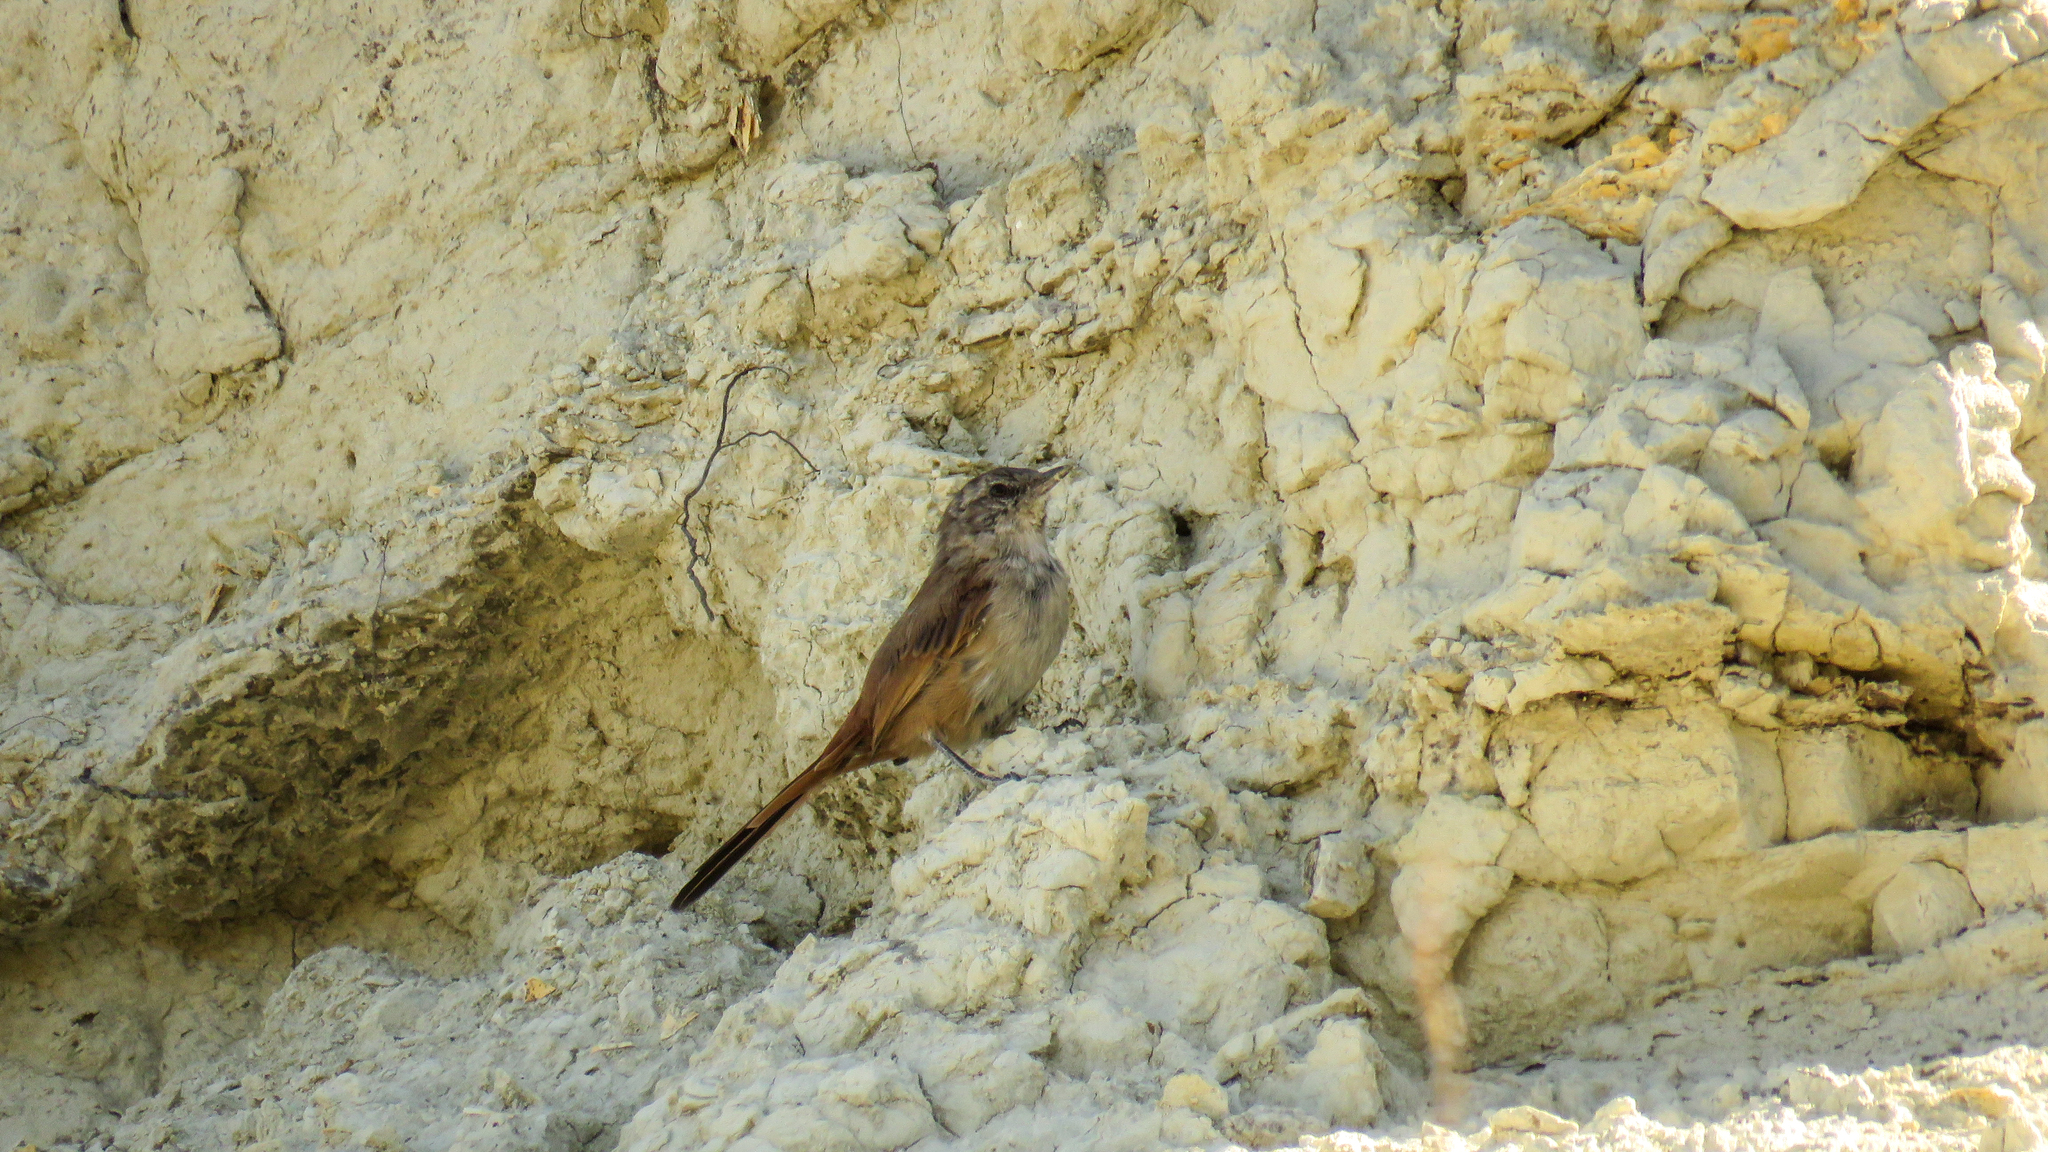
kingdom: Animalia
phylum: Chordata
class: Aves
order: Passeriformes
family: Furnariidae
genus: Asthenes
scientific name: Asthenes steinbachi
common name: Steinbach's canastero
